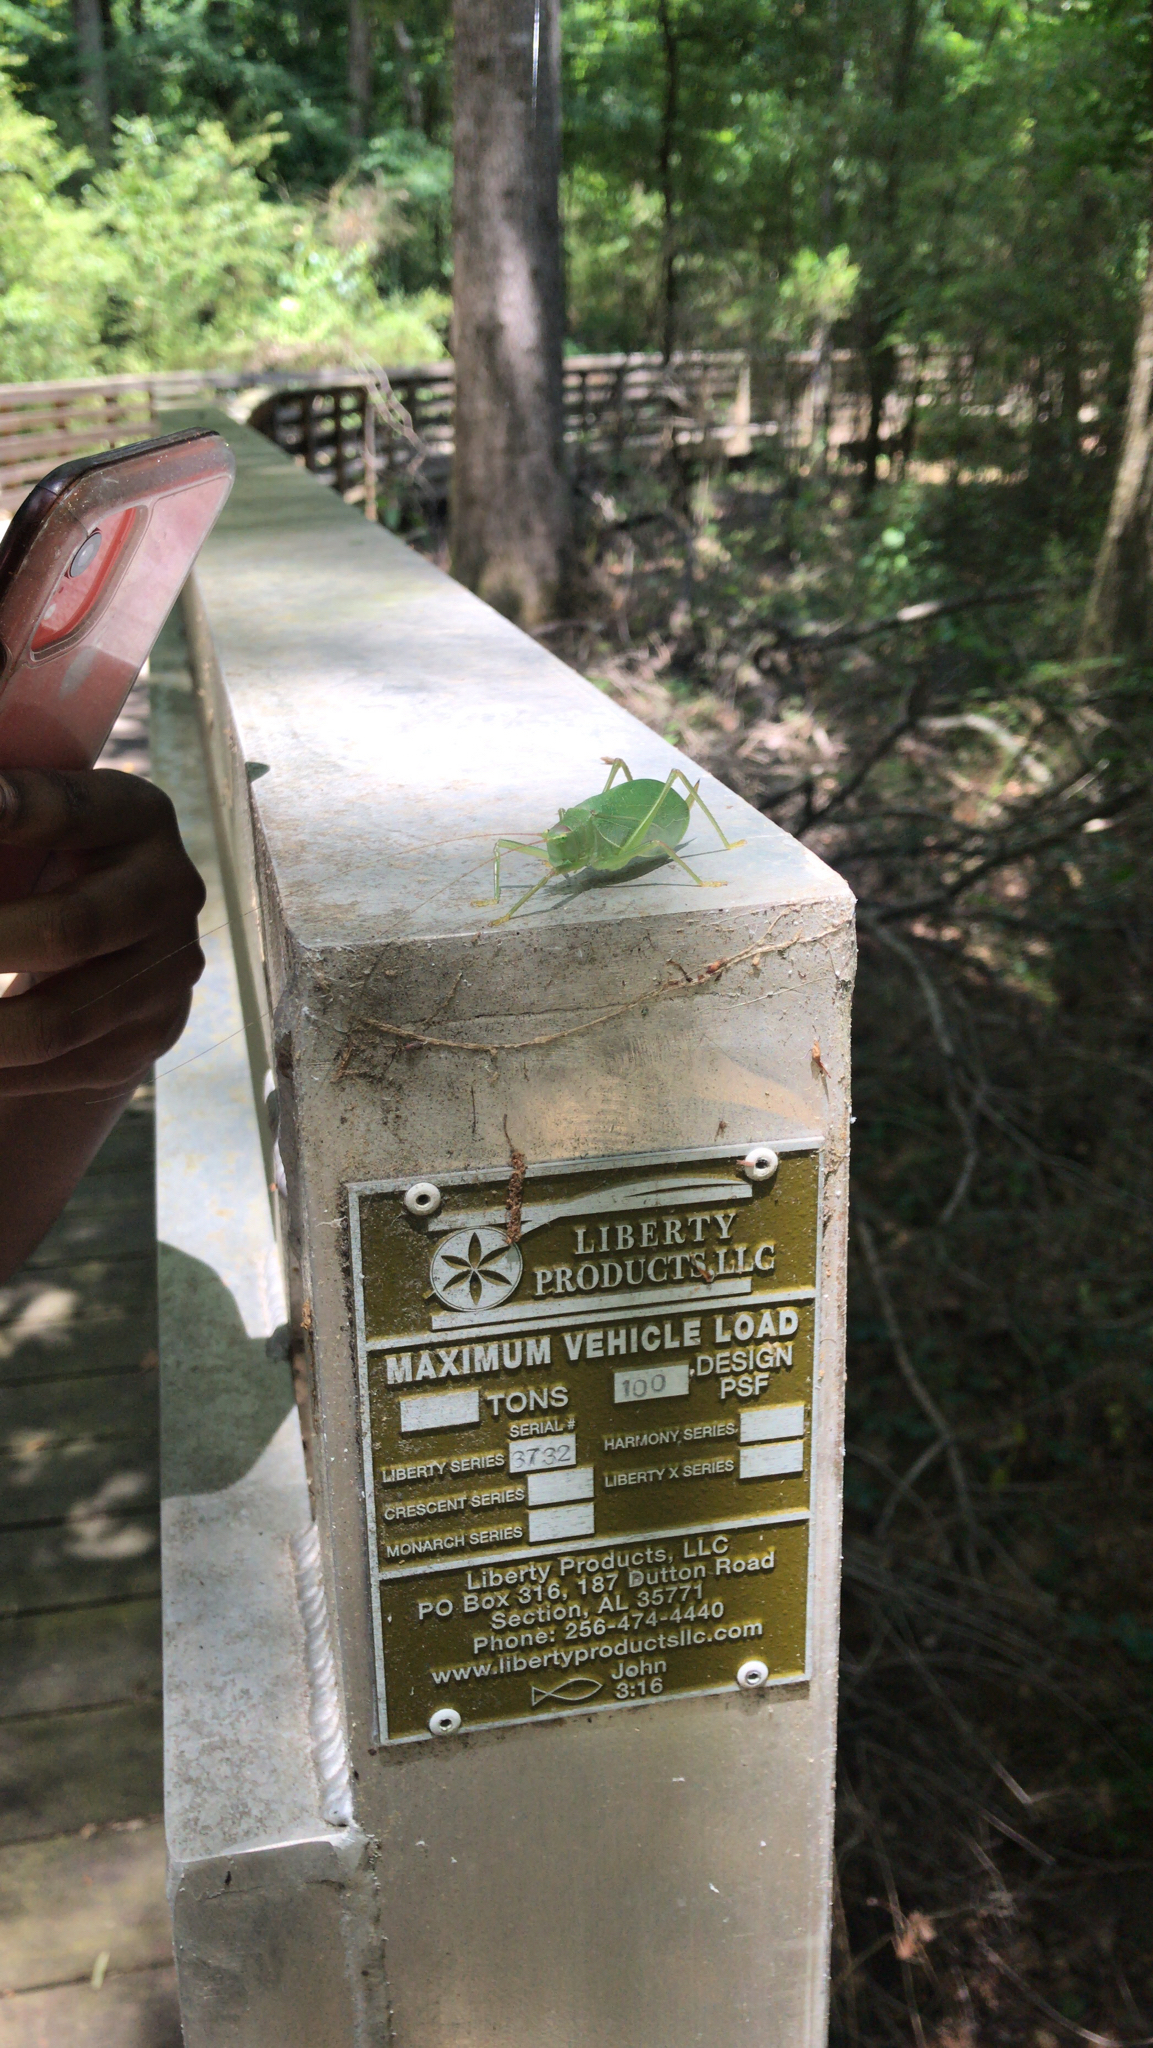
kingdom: Animalia
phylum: Arthropoda
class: Insecta
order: Orthoptera
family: Tettigoniidae
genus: Pterophylla
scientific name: Pterophylla camellifolia
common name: Common true katydid
